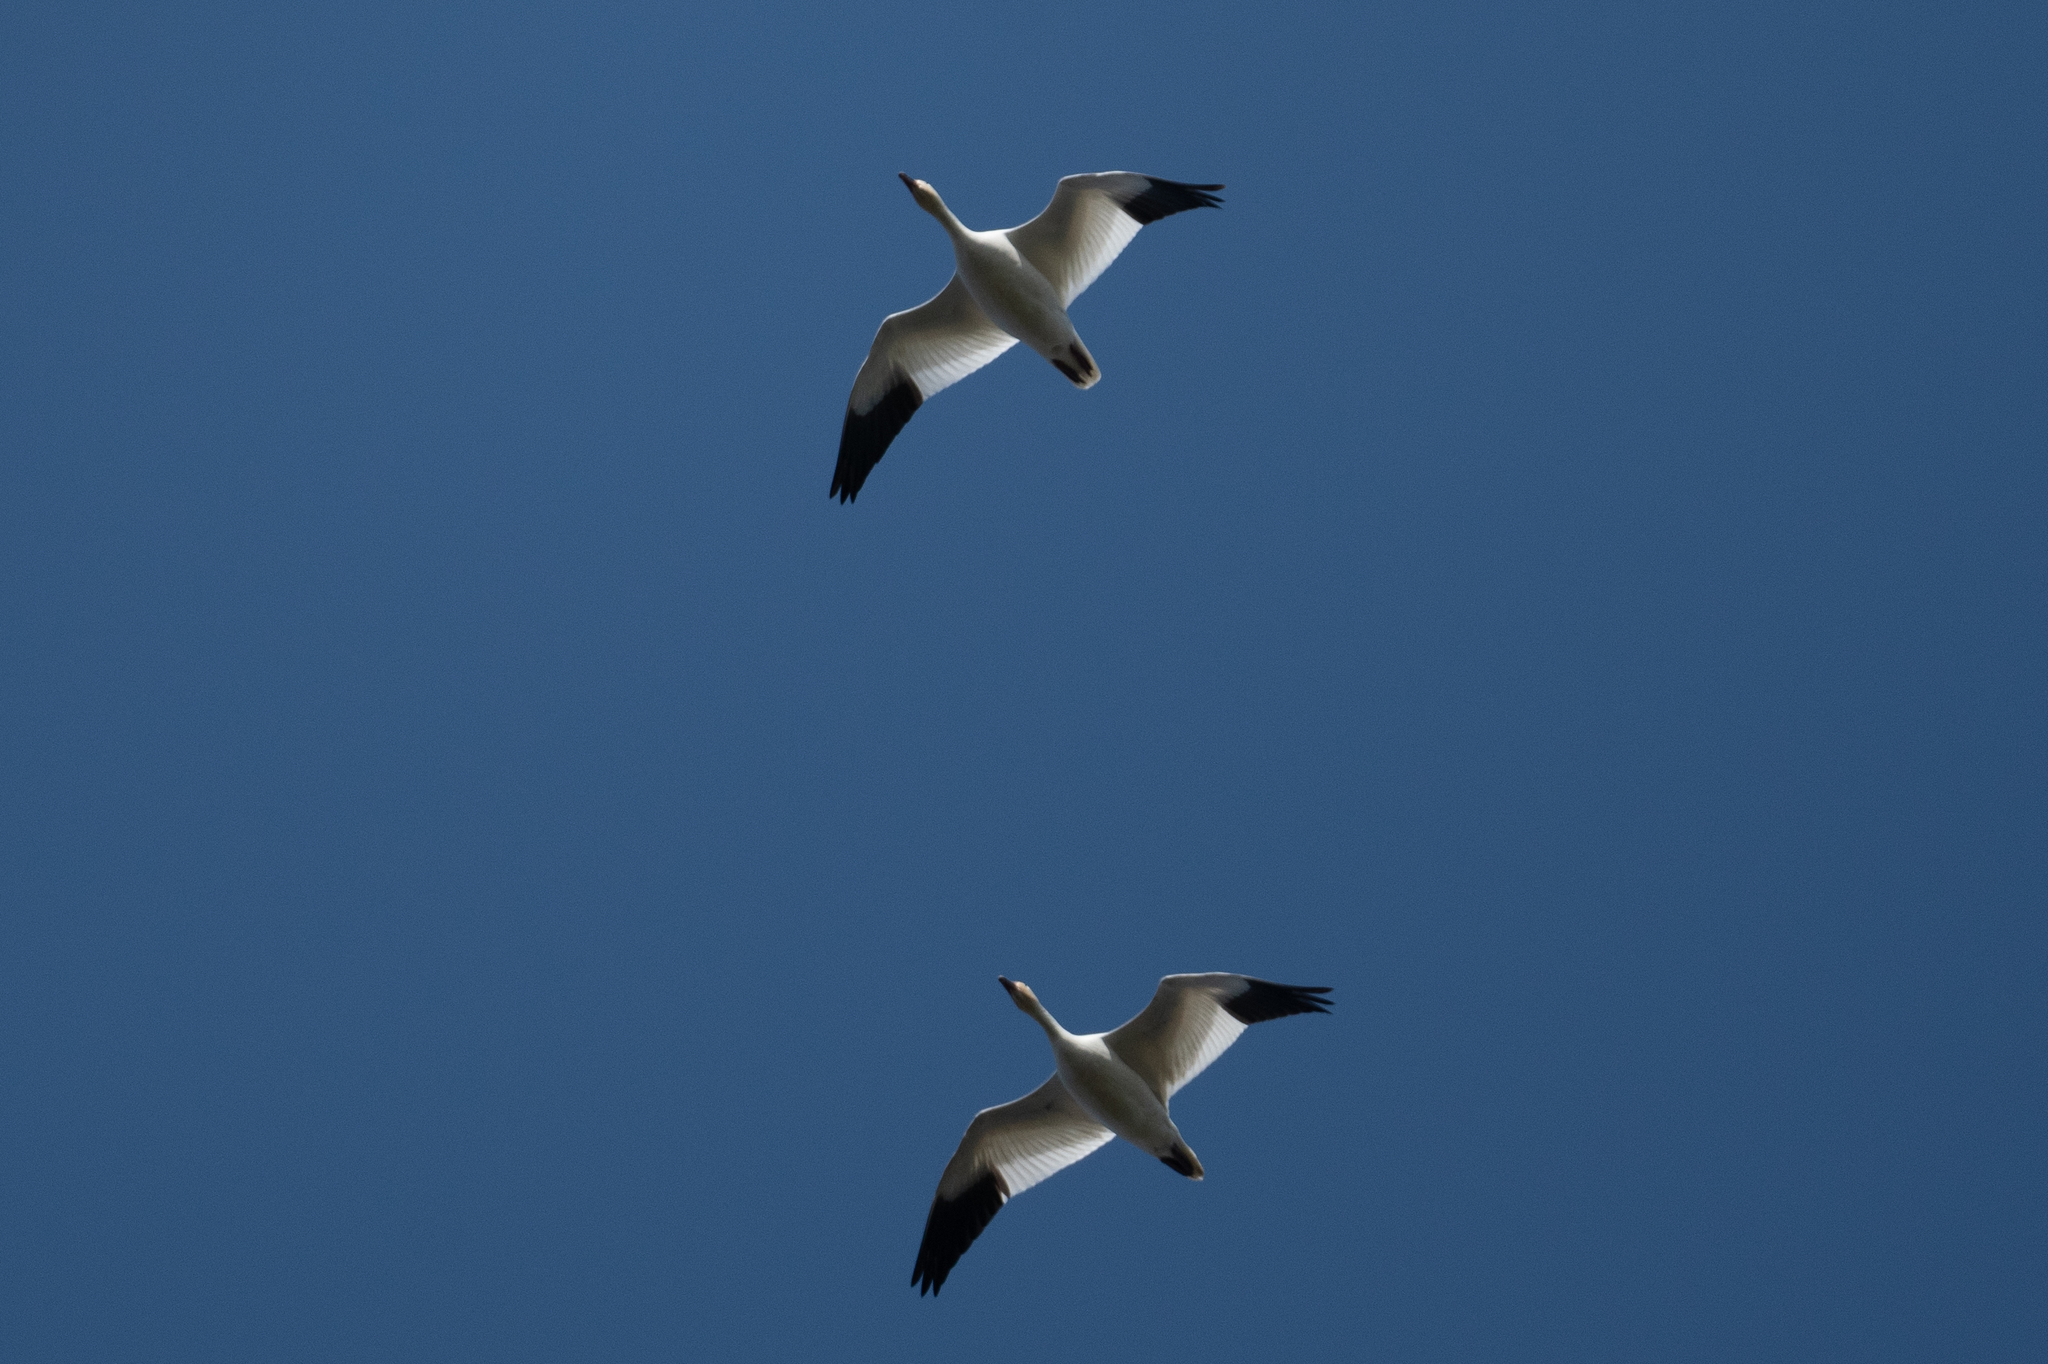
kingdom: Animalia
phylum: Chordata
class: Aves
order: Anseriformes
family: Anatidae
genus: Anser
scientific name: Anser caerulescens
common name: Snow goose
